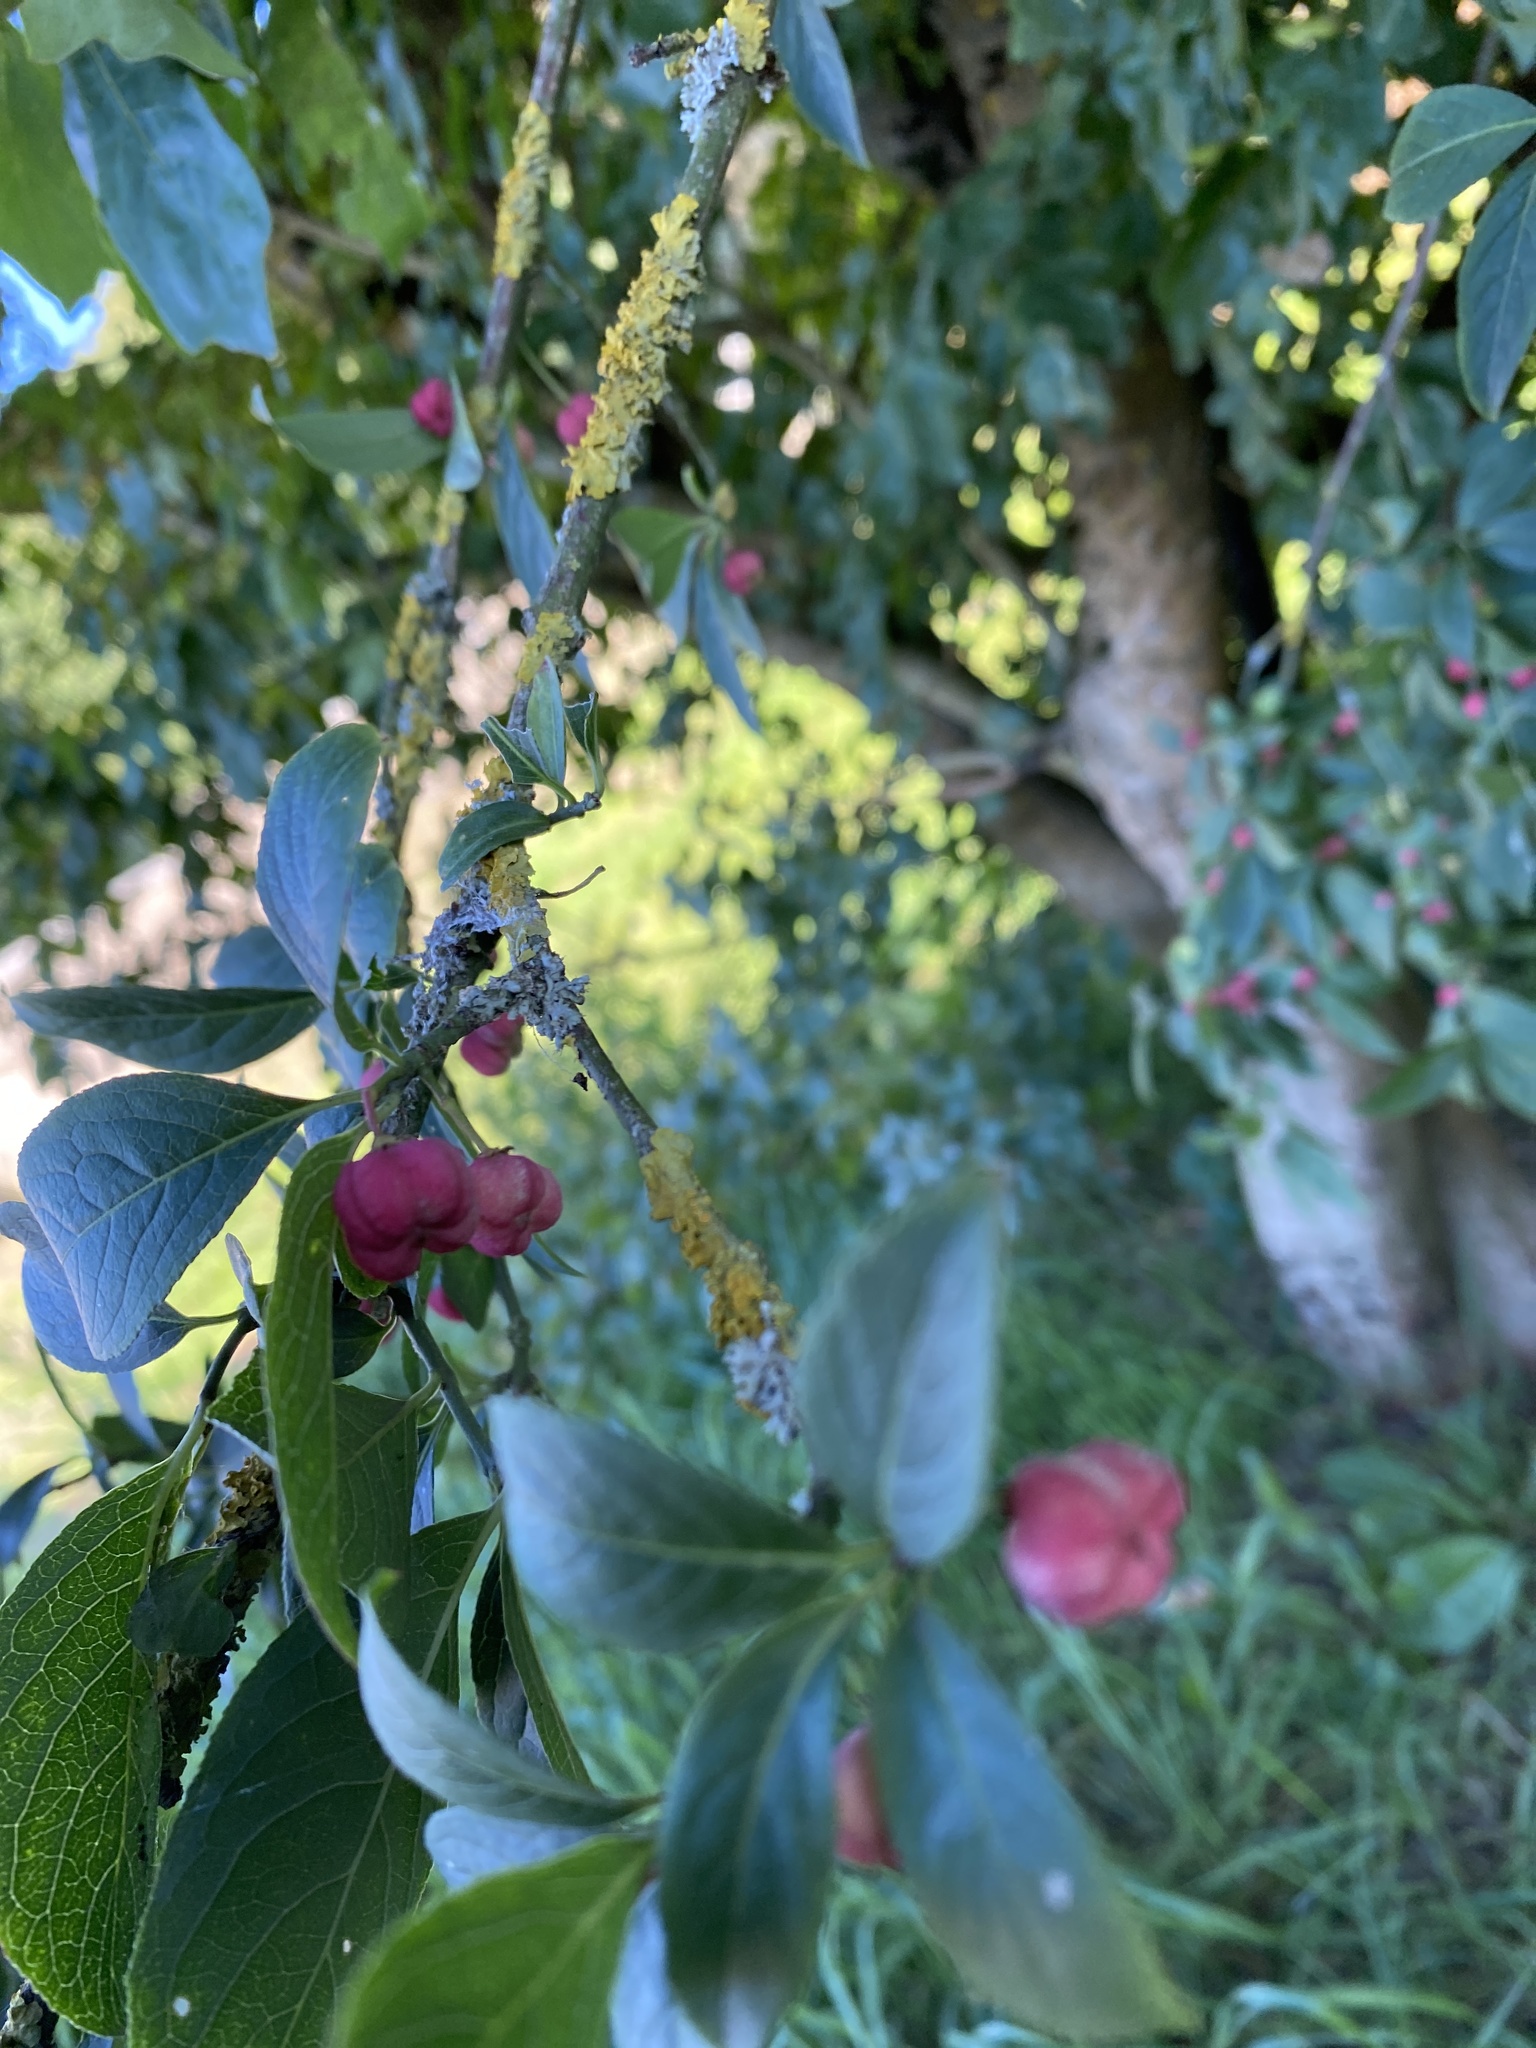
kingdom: Plantae
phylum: Tracheophyta
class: Magnoliopsida
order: Celastrales
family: Celastraceae
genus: Euonymus
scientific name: Euonymus europaeus
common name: Spindle
